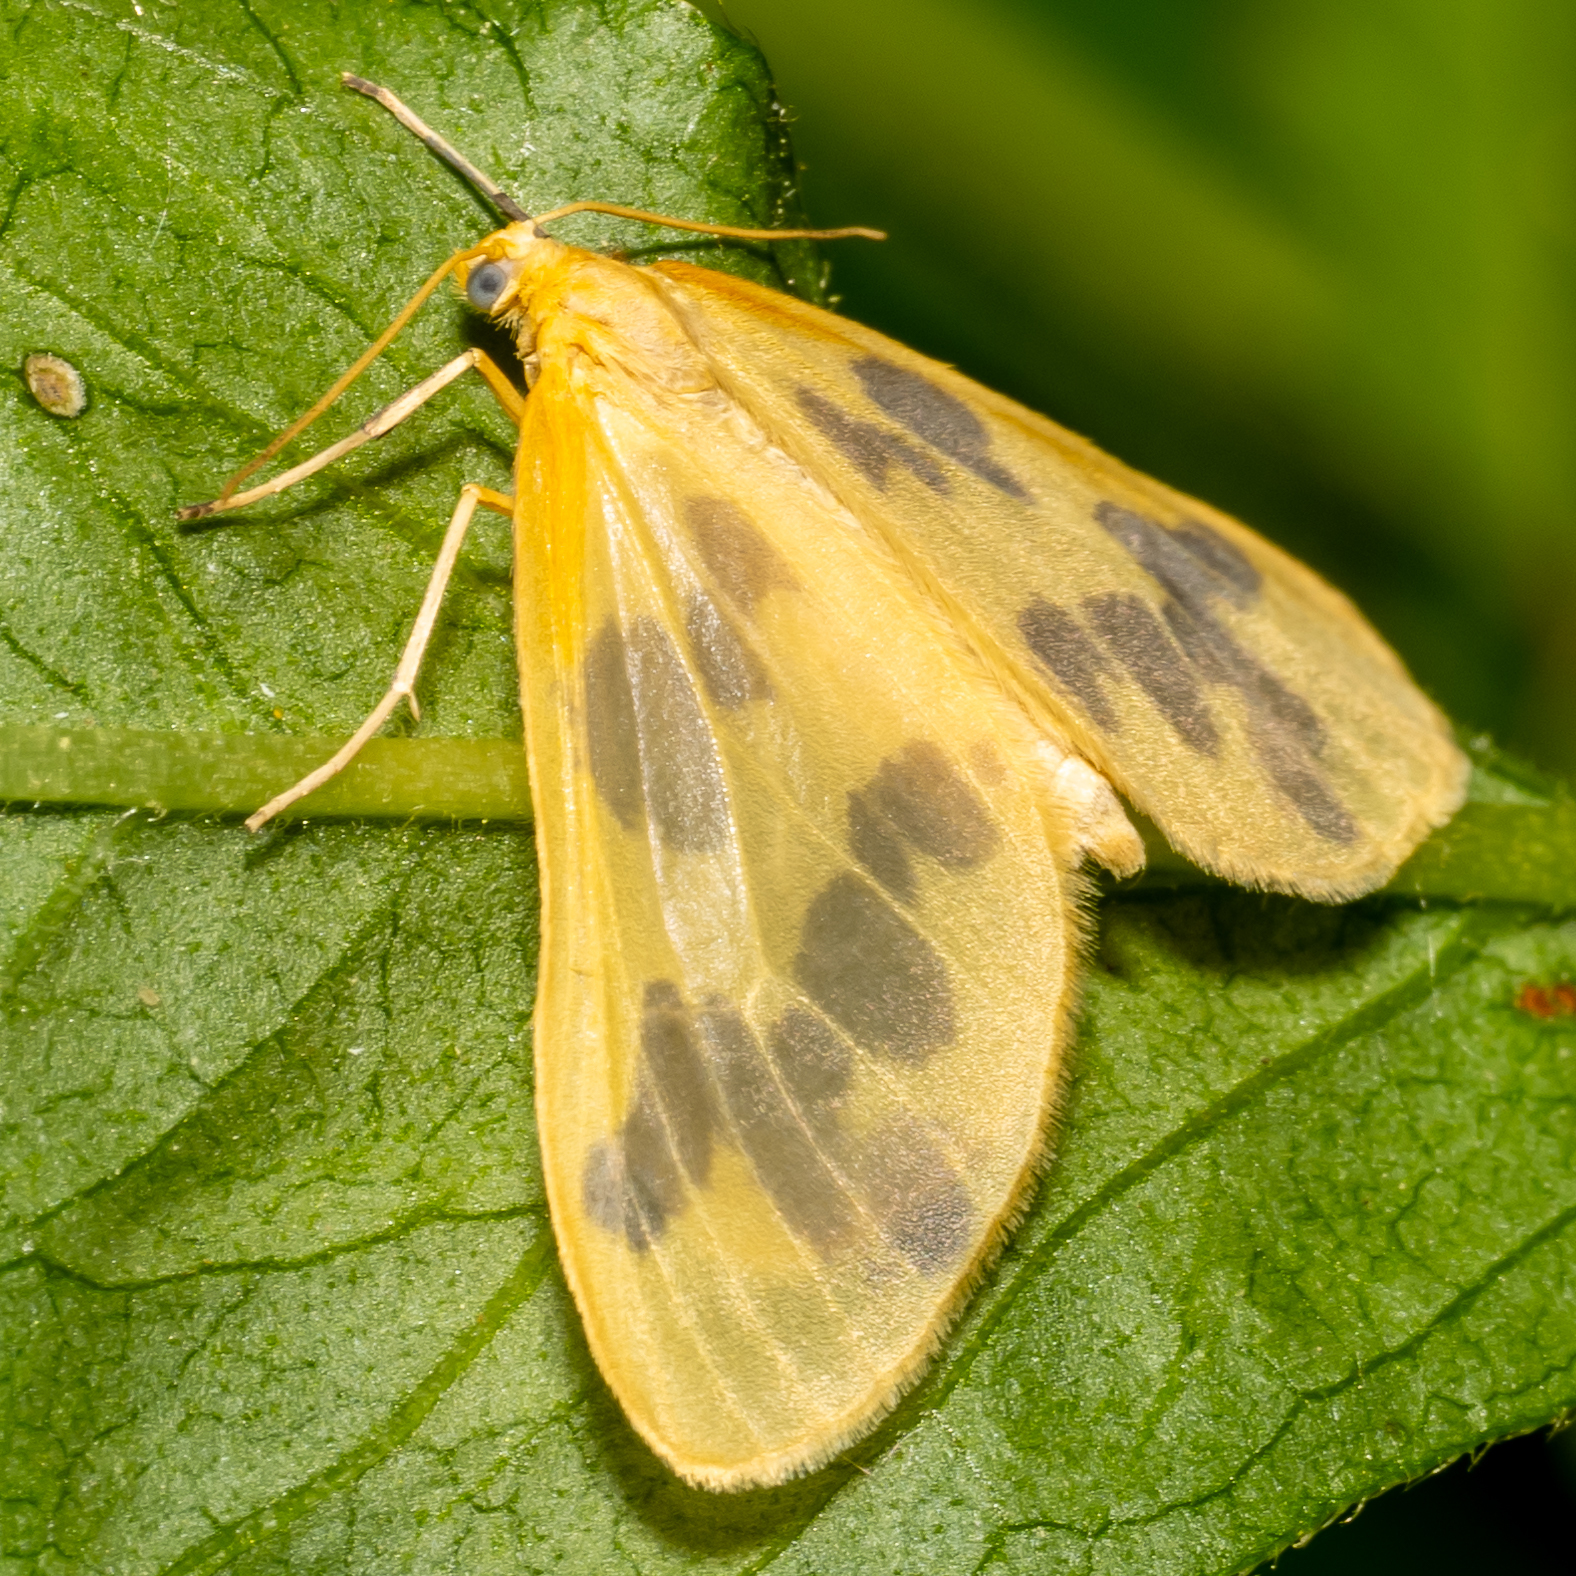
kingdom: Animalia
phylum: Arthropoda
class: Insecta
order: Lepidoptera
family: Geometridae
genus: Eubaphe
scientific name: Eubaphe mendica
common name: Beggar
